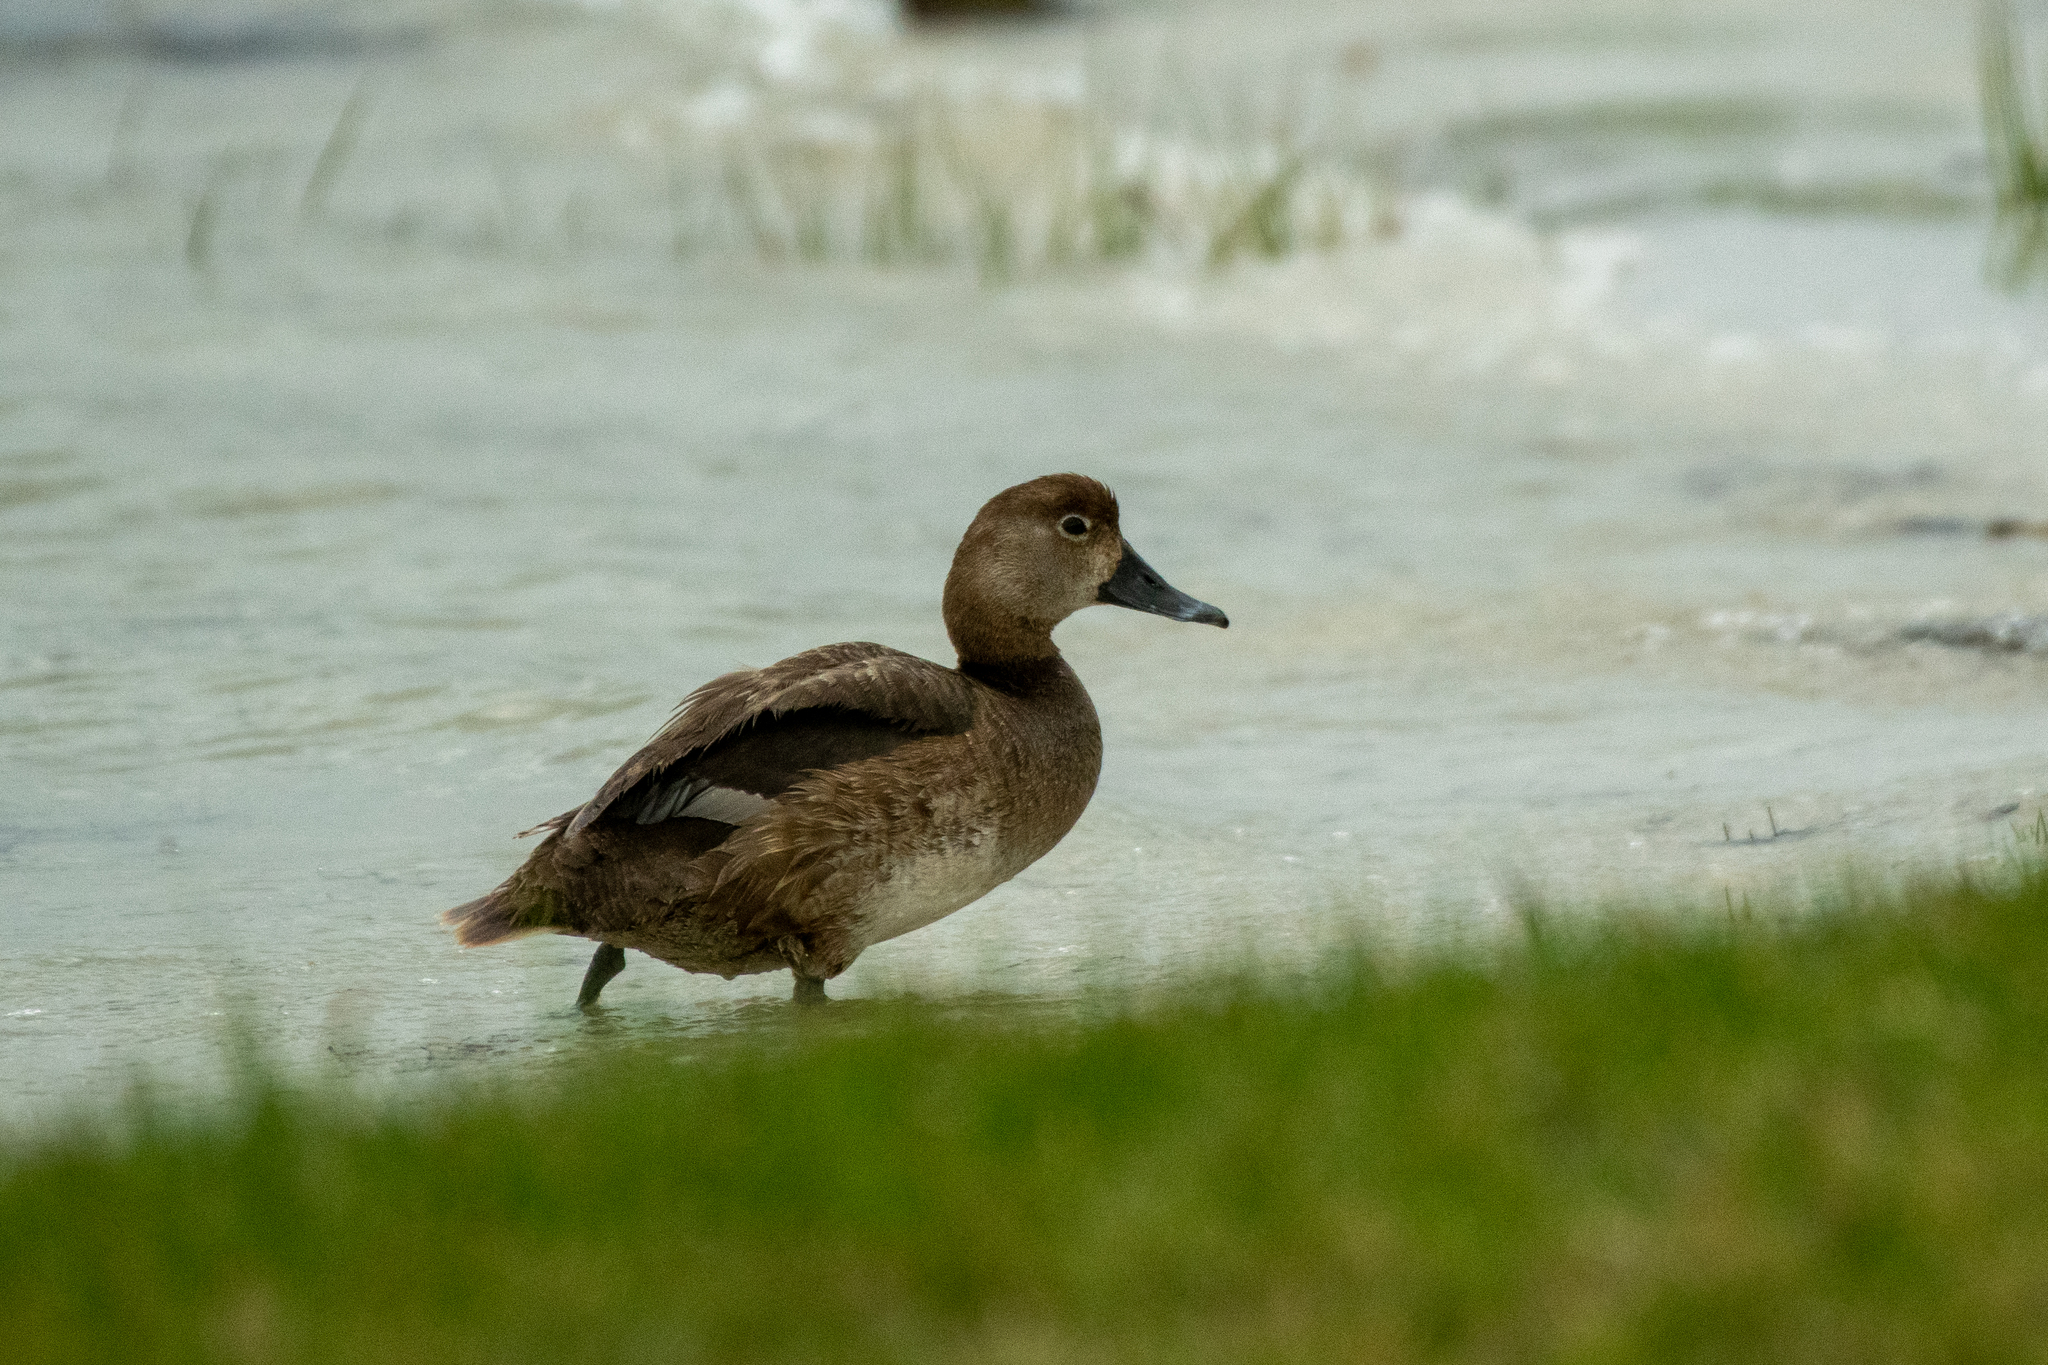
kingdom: Animalia
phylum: Chordata
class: Aves
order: Anseriformes
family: Anatidae
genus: Aythya
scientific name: Aythya americana
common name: Redhead
